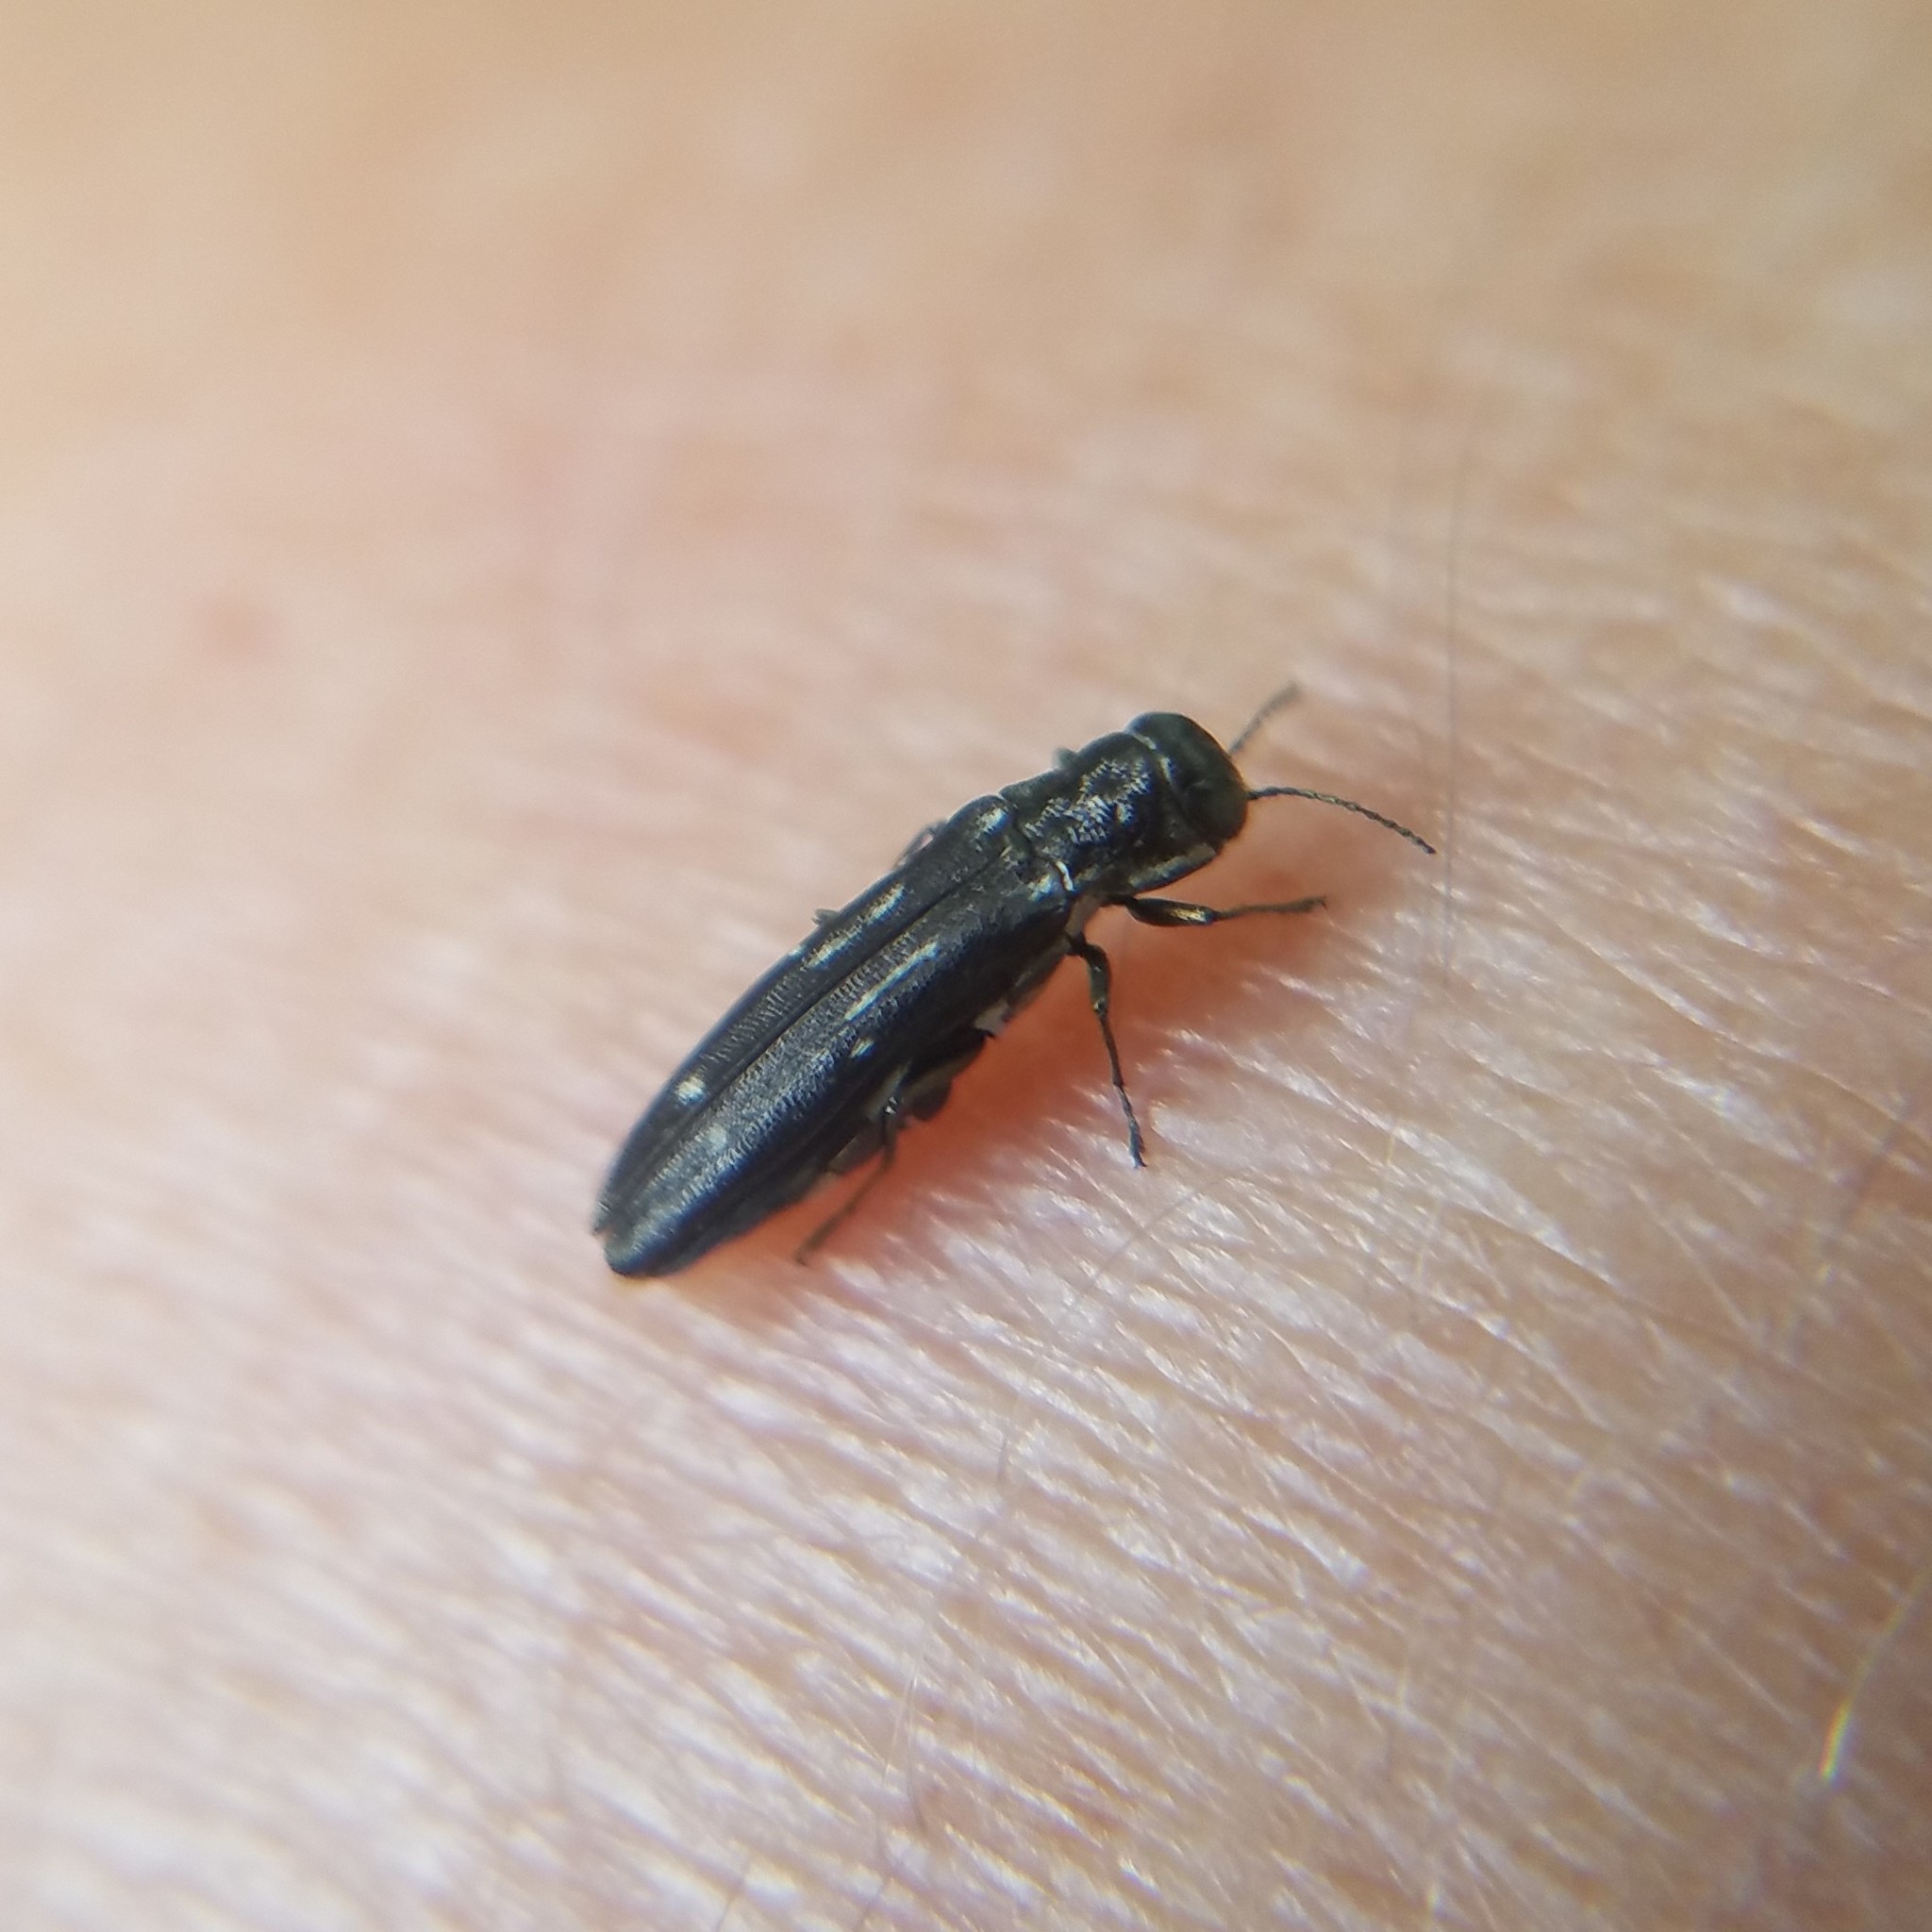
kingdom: Animalia
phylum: Arthropoda
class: Insecta
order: Coleoptera
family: Buprestidae
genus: Agrilus
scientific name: Agrilus obsoletoguttatus
